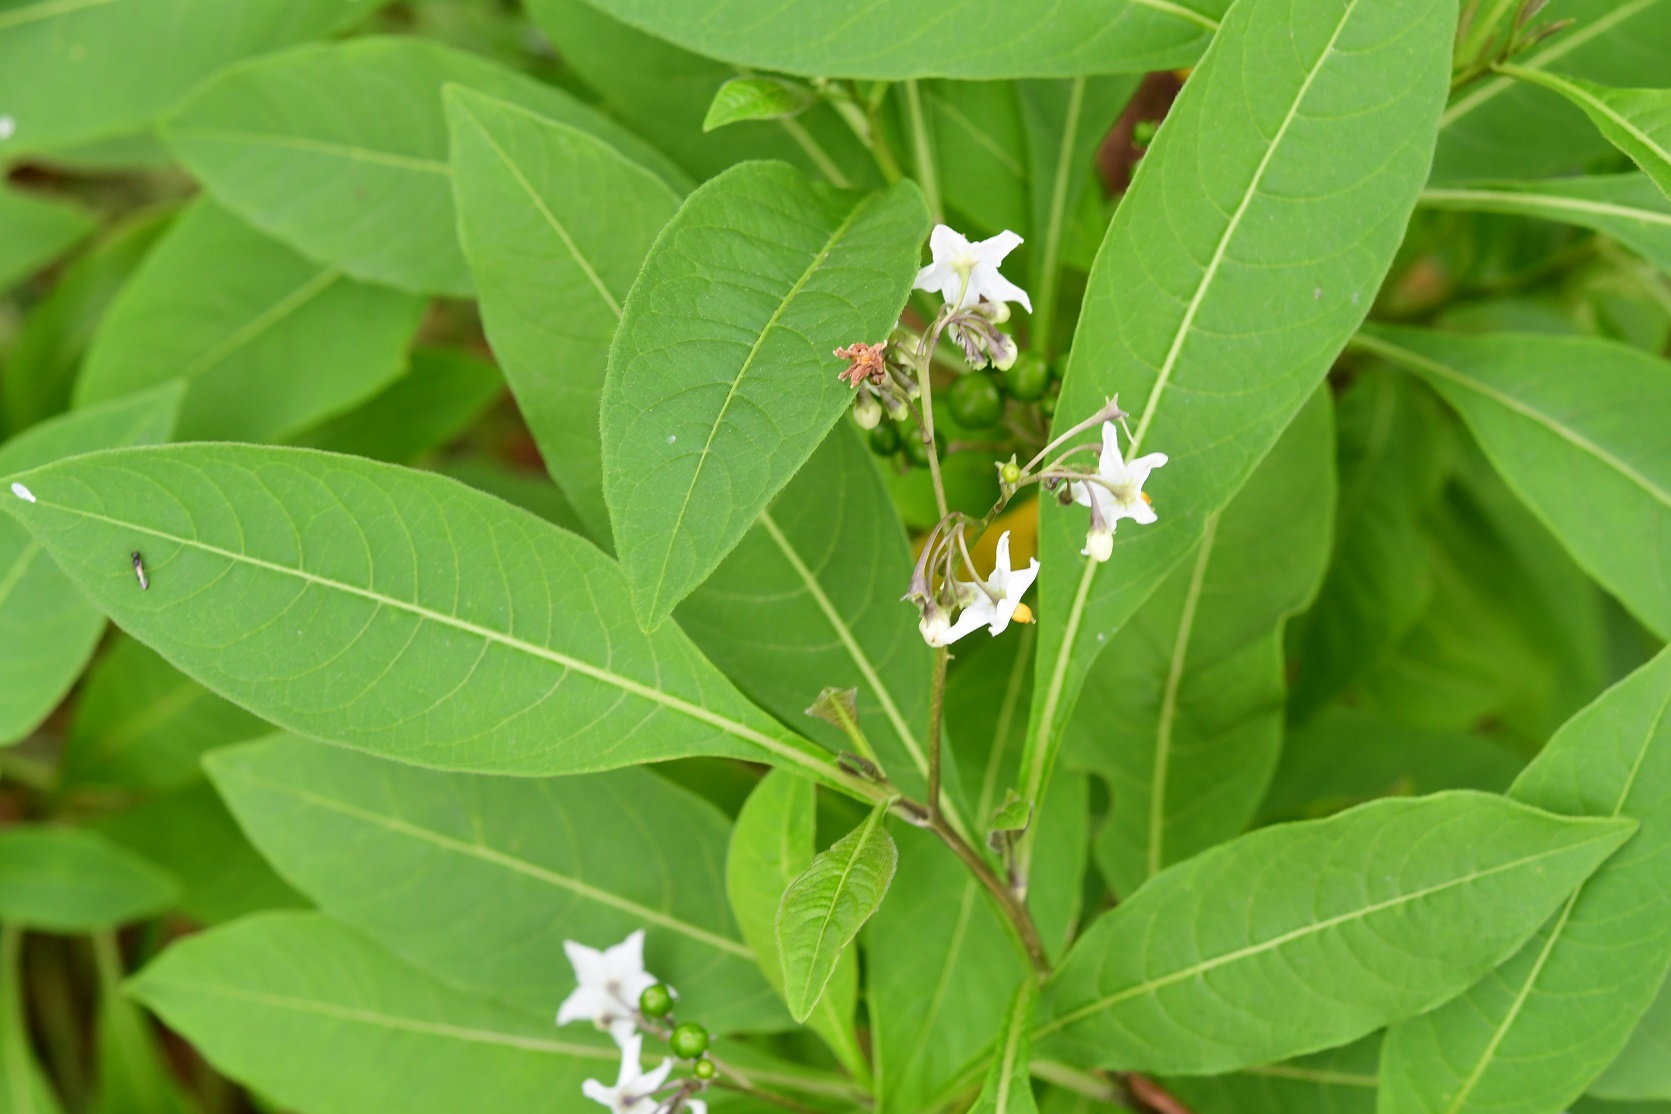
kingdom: Plantae
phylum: Tracheophyta
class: Magnoliopsida
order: Solanales
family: Solanaceae
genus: Solanum
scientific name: Solanum pubigerum
